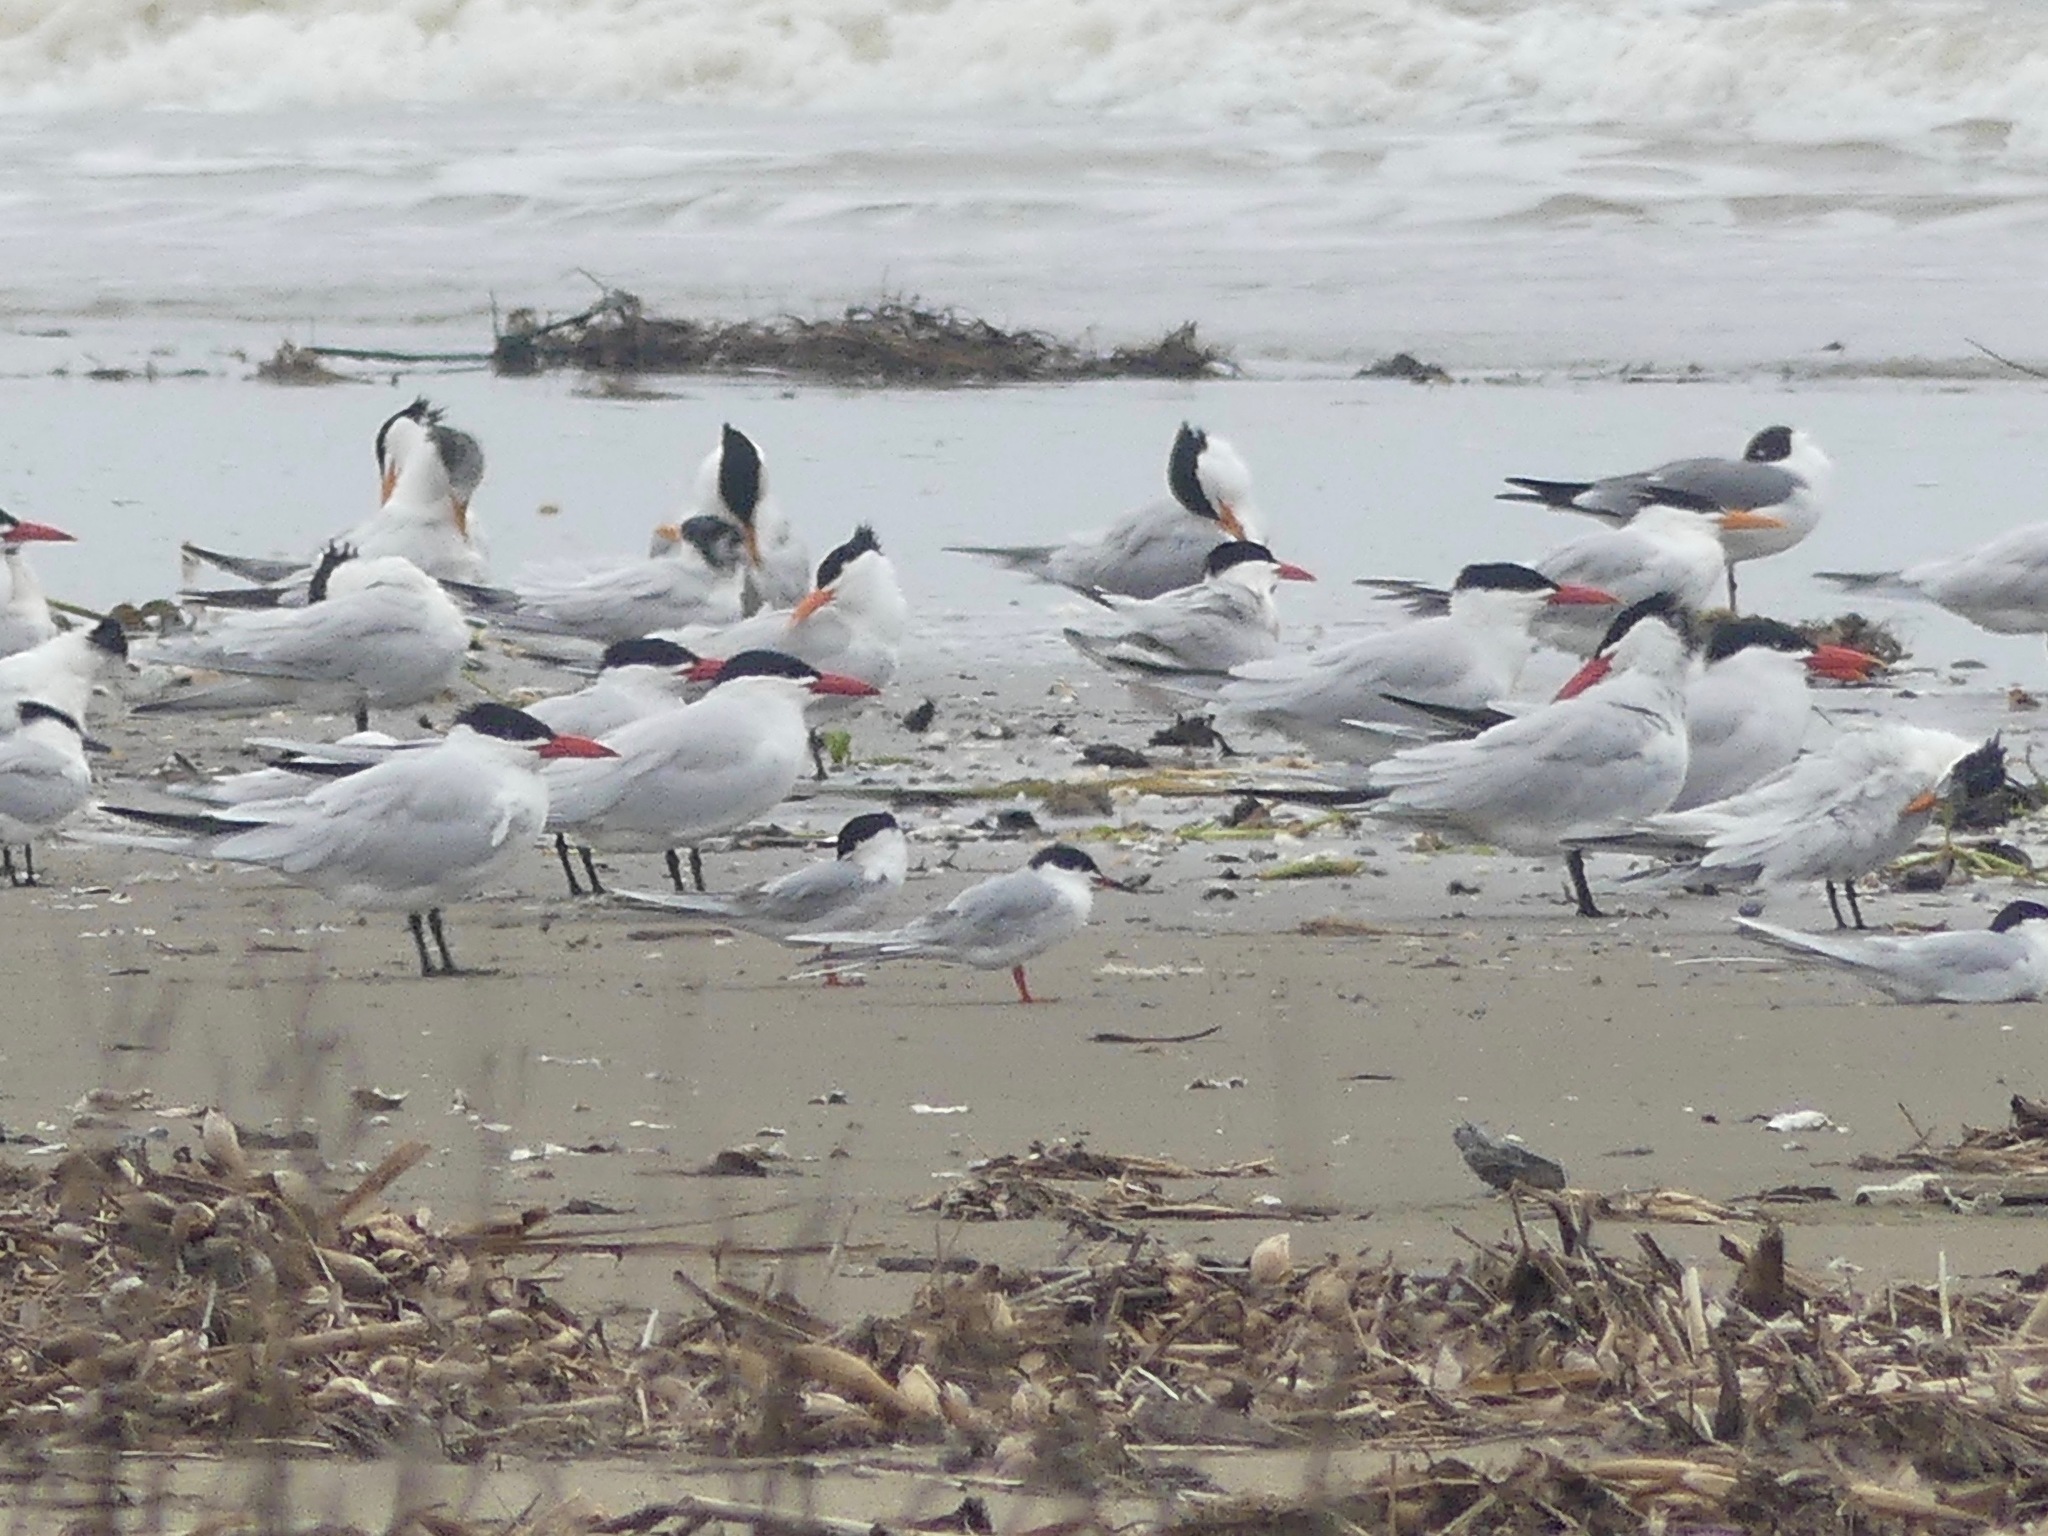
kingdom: Animalia
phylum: Chordata
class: Aves
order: Charadriiformes
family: Laridae
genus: Hydroprogne
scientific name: Hydroprogne caspia
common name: Caspian tern
